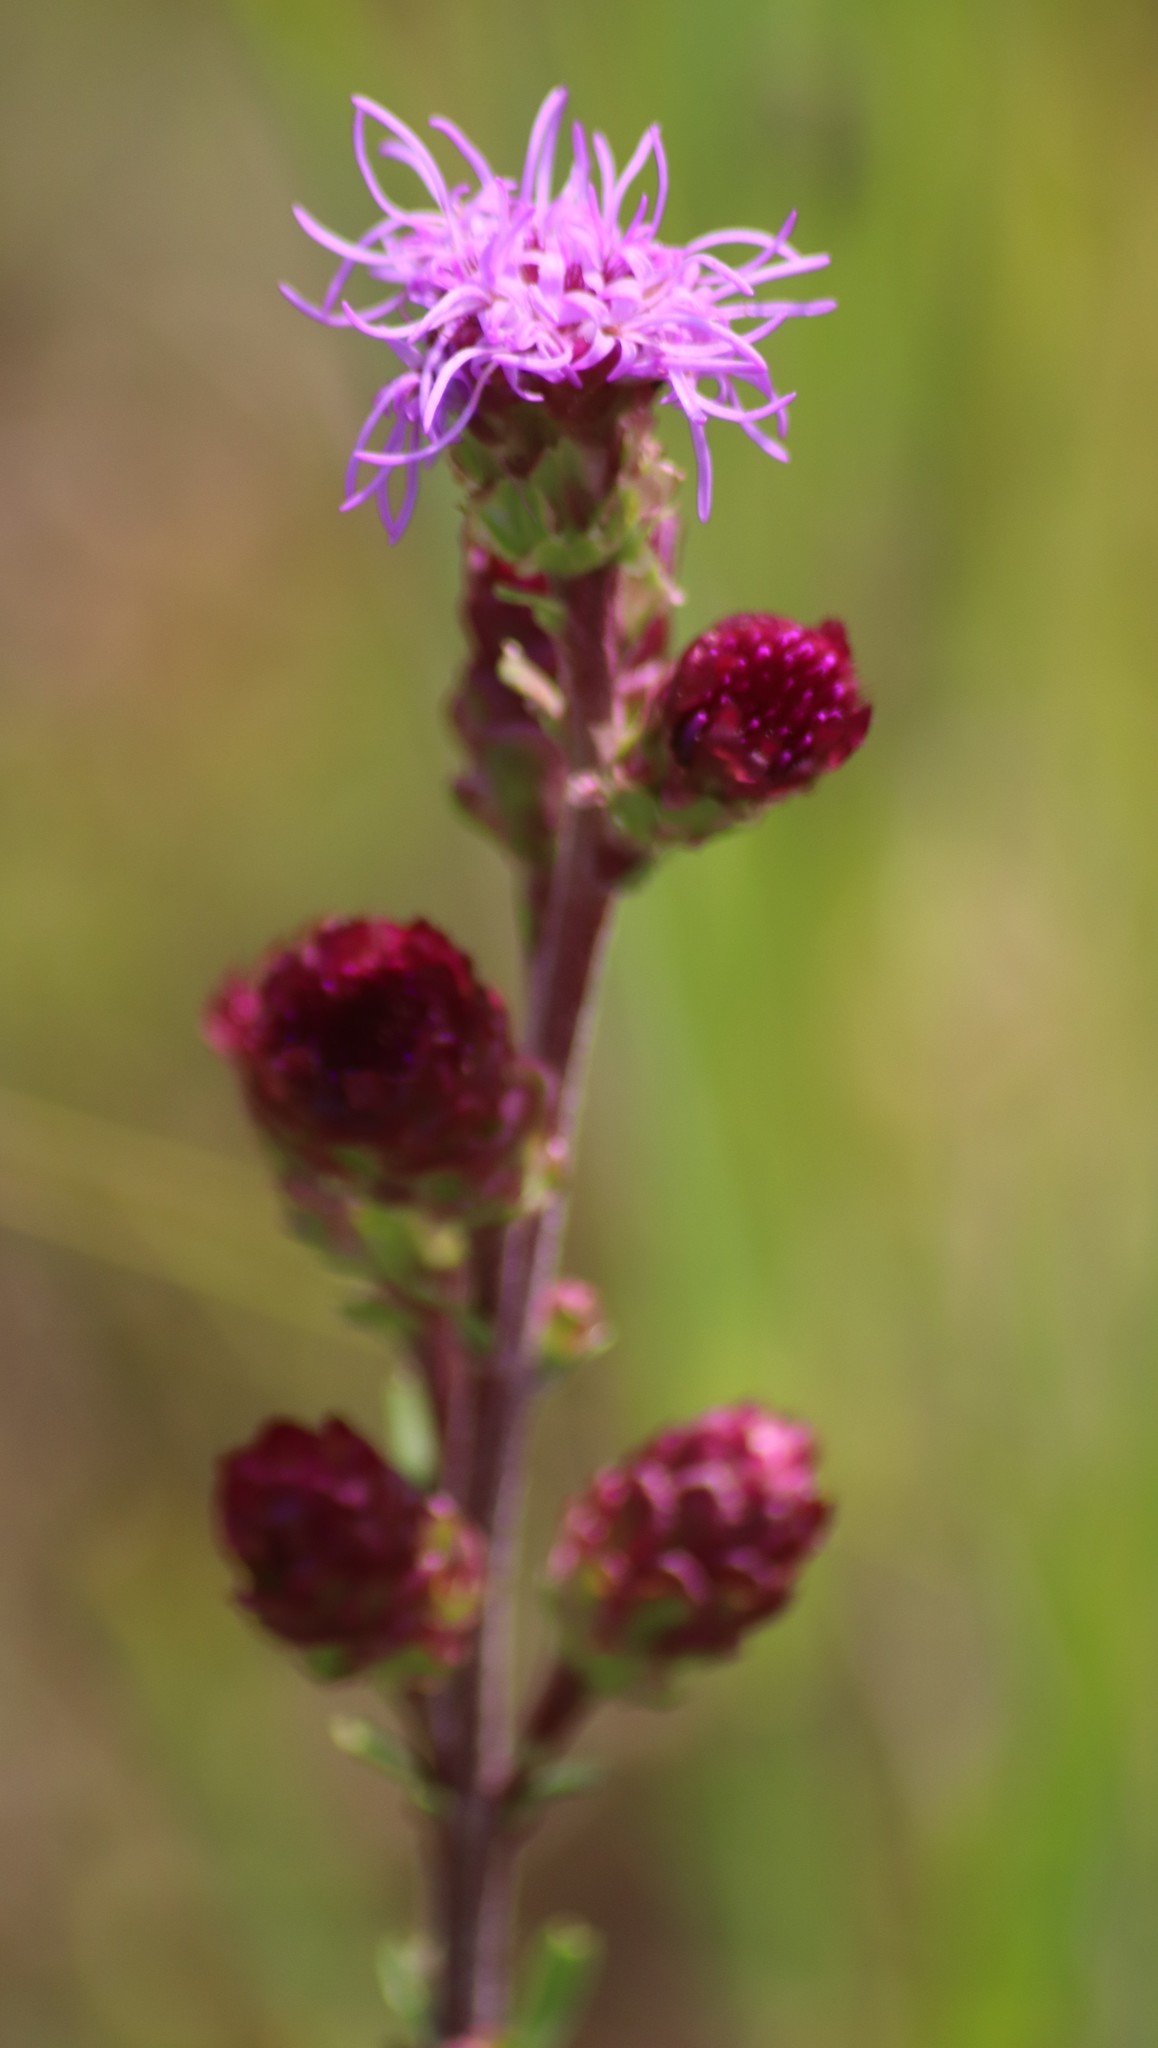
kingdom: Plantae
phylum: Tracheophyta
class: Magnoliopsida
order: Asterales
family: Asteraceae
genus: Liatris
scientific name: Liatris ligulistylis
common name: Northern plains gayfeather
